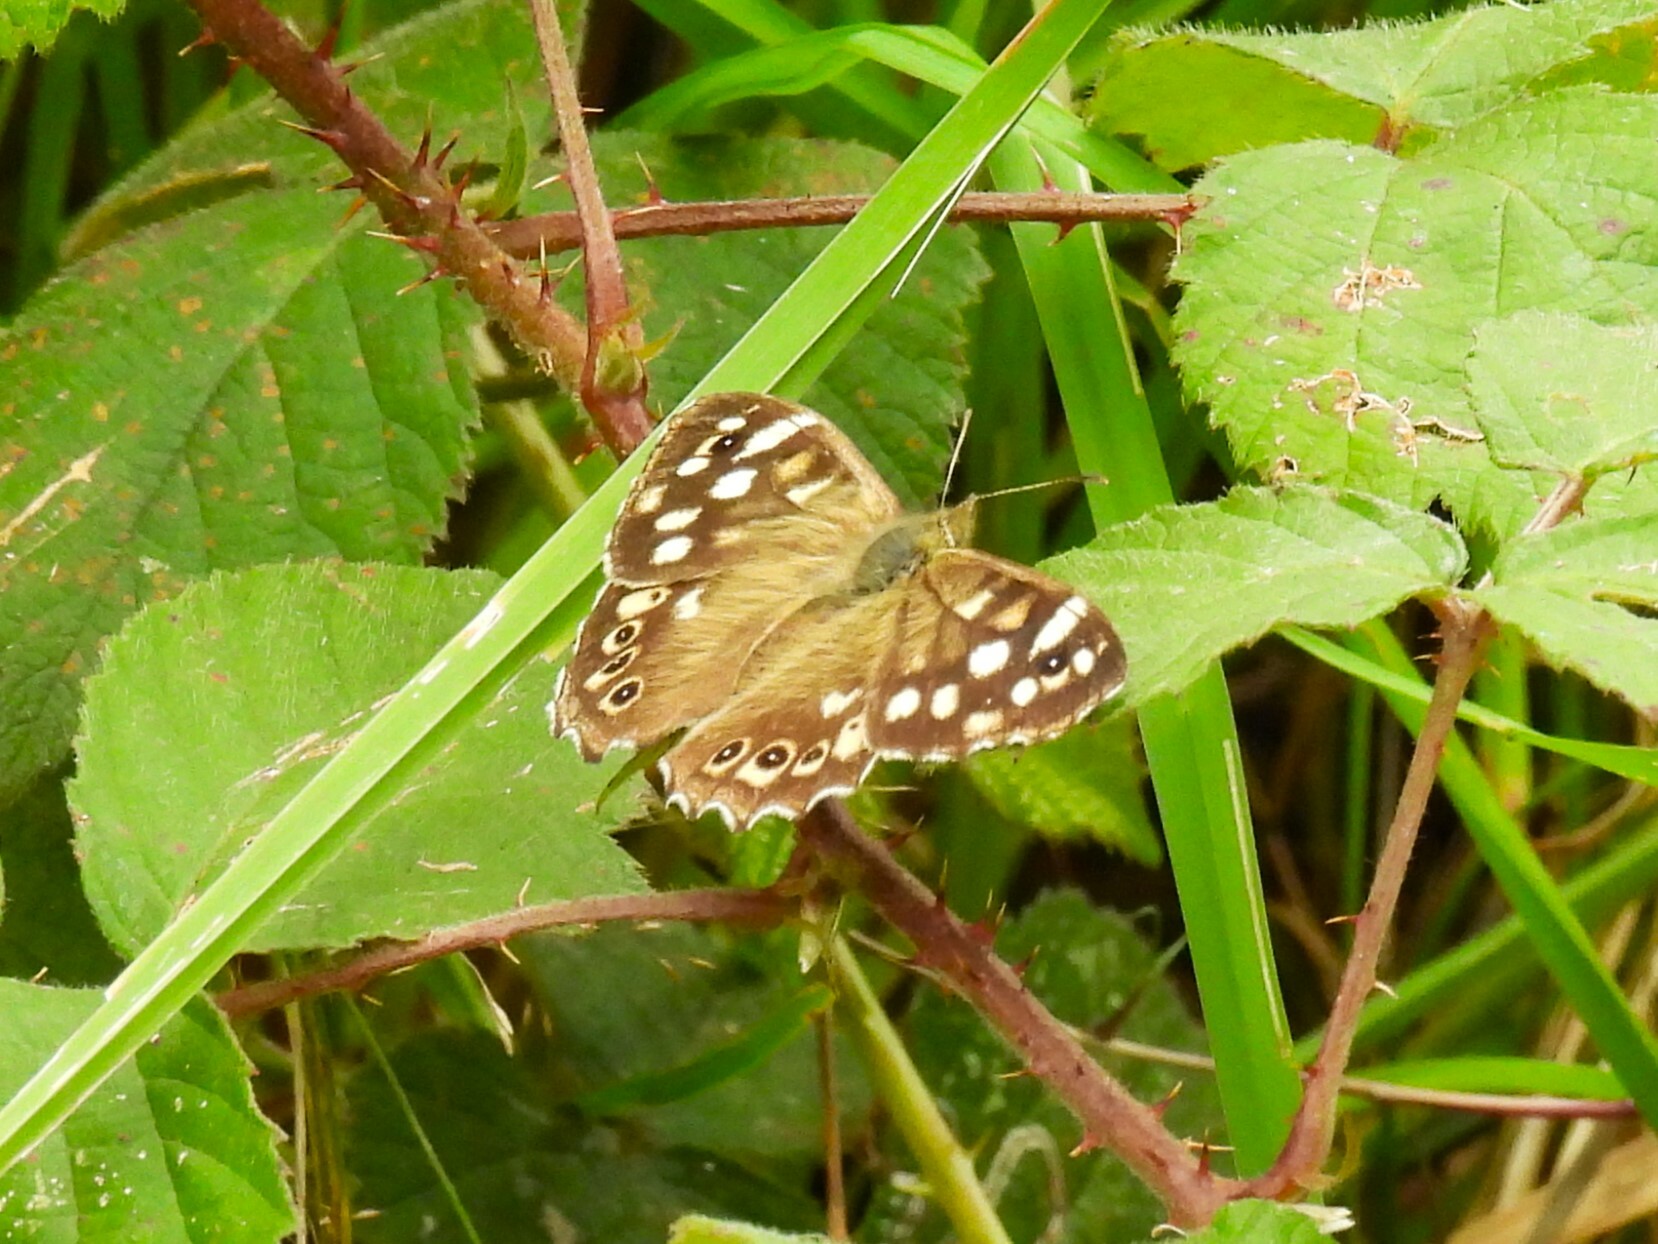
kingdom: Animalia
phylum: Arthropoda
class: Insecta
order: Lepidoptera
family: Nymphalidae
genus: Pararge
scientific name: Pararge aegeria
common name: Speckled wood
